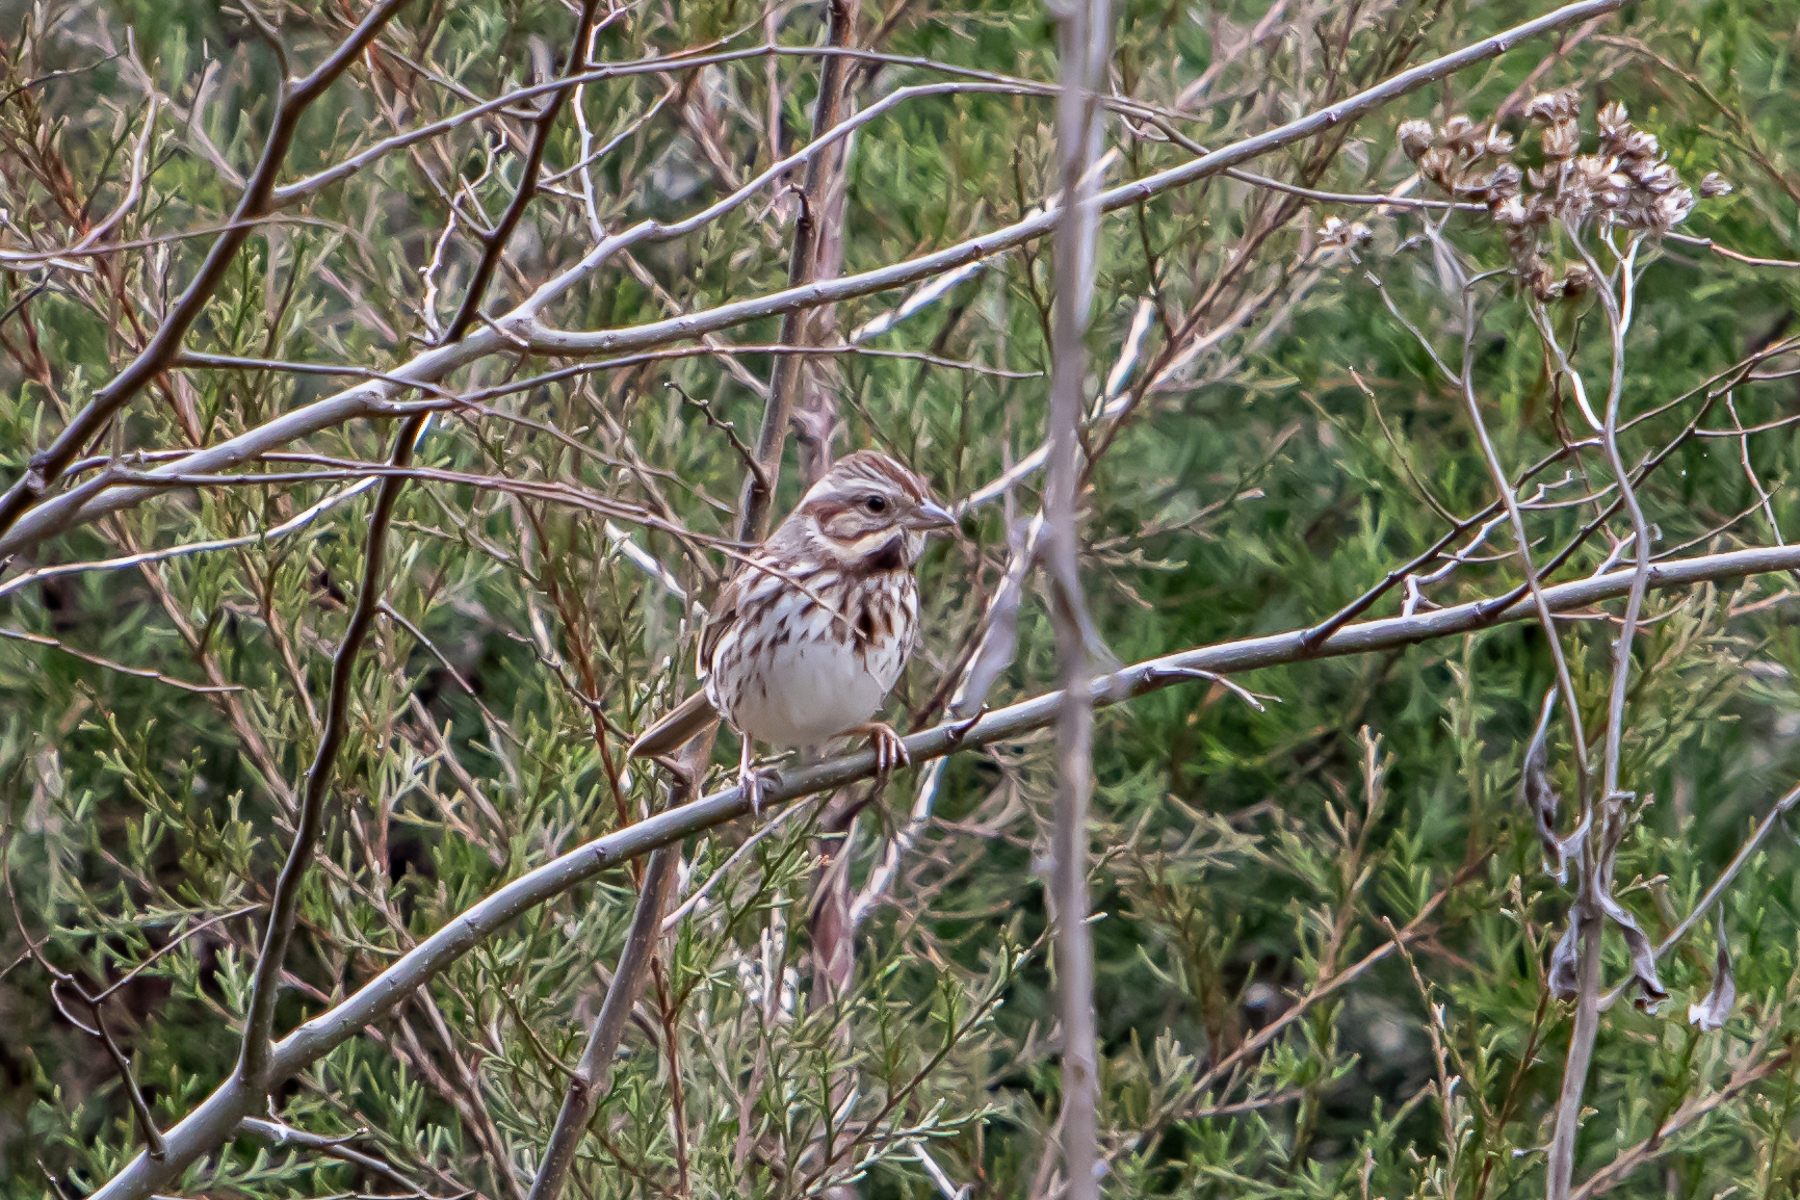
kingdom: Animalia
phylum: Chordata
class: Aves
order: Passeriformes
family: Passerellidae
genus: Melospiza
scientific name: Melospiza melodia
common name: Song sparrow
